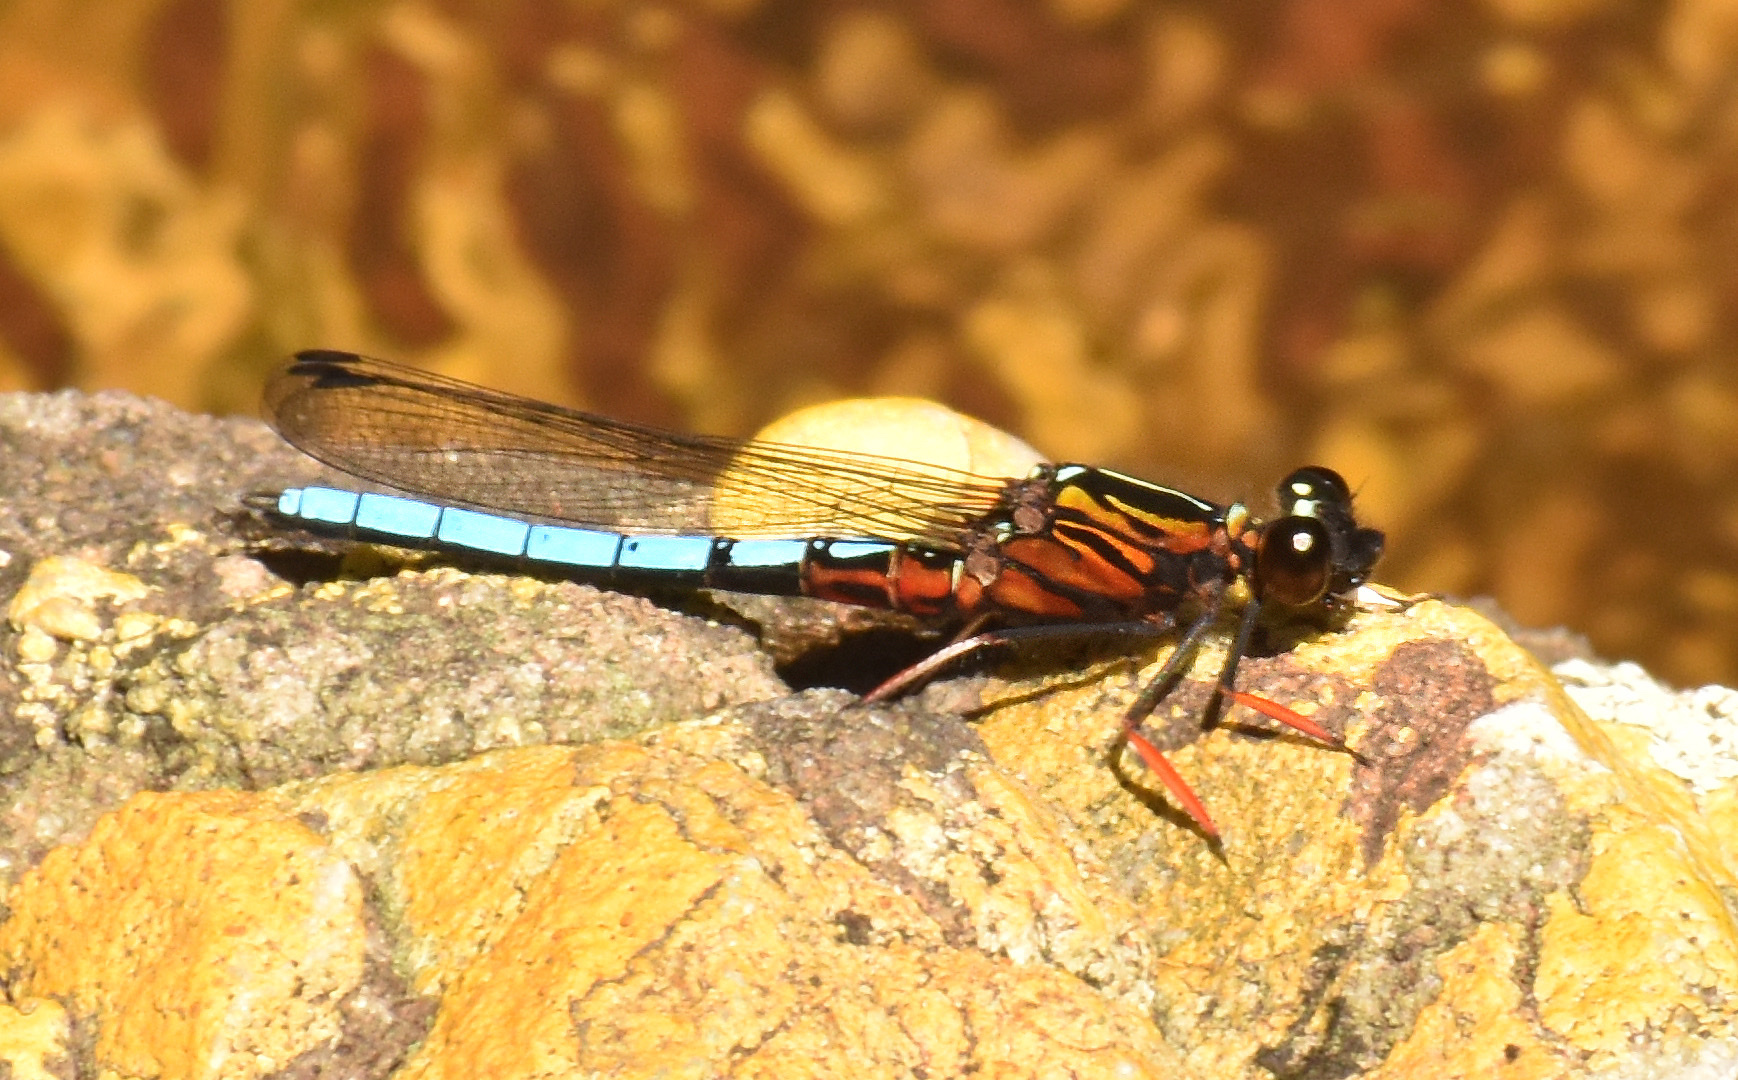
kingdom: Animalia
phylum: Arthropoda
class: Insecta
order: Odonata
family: Chlorocyphidae
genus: Platycypha
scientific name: Platycypha caligata
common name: Dancing jewel
